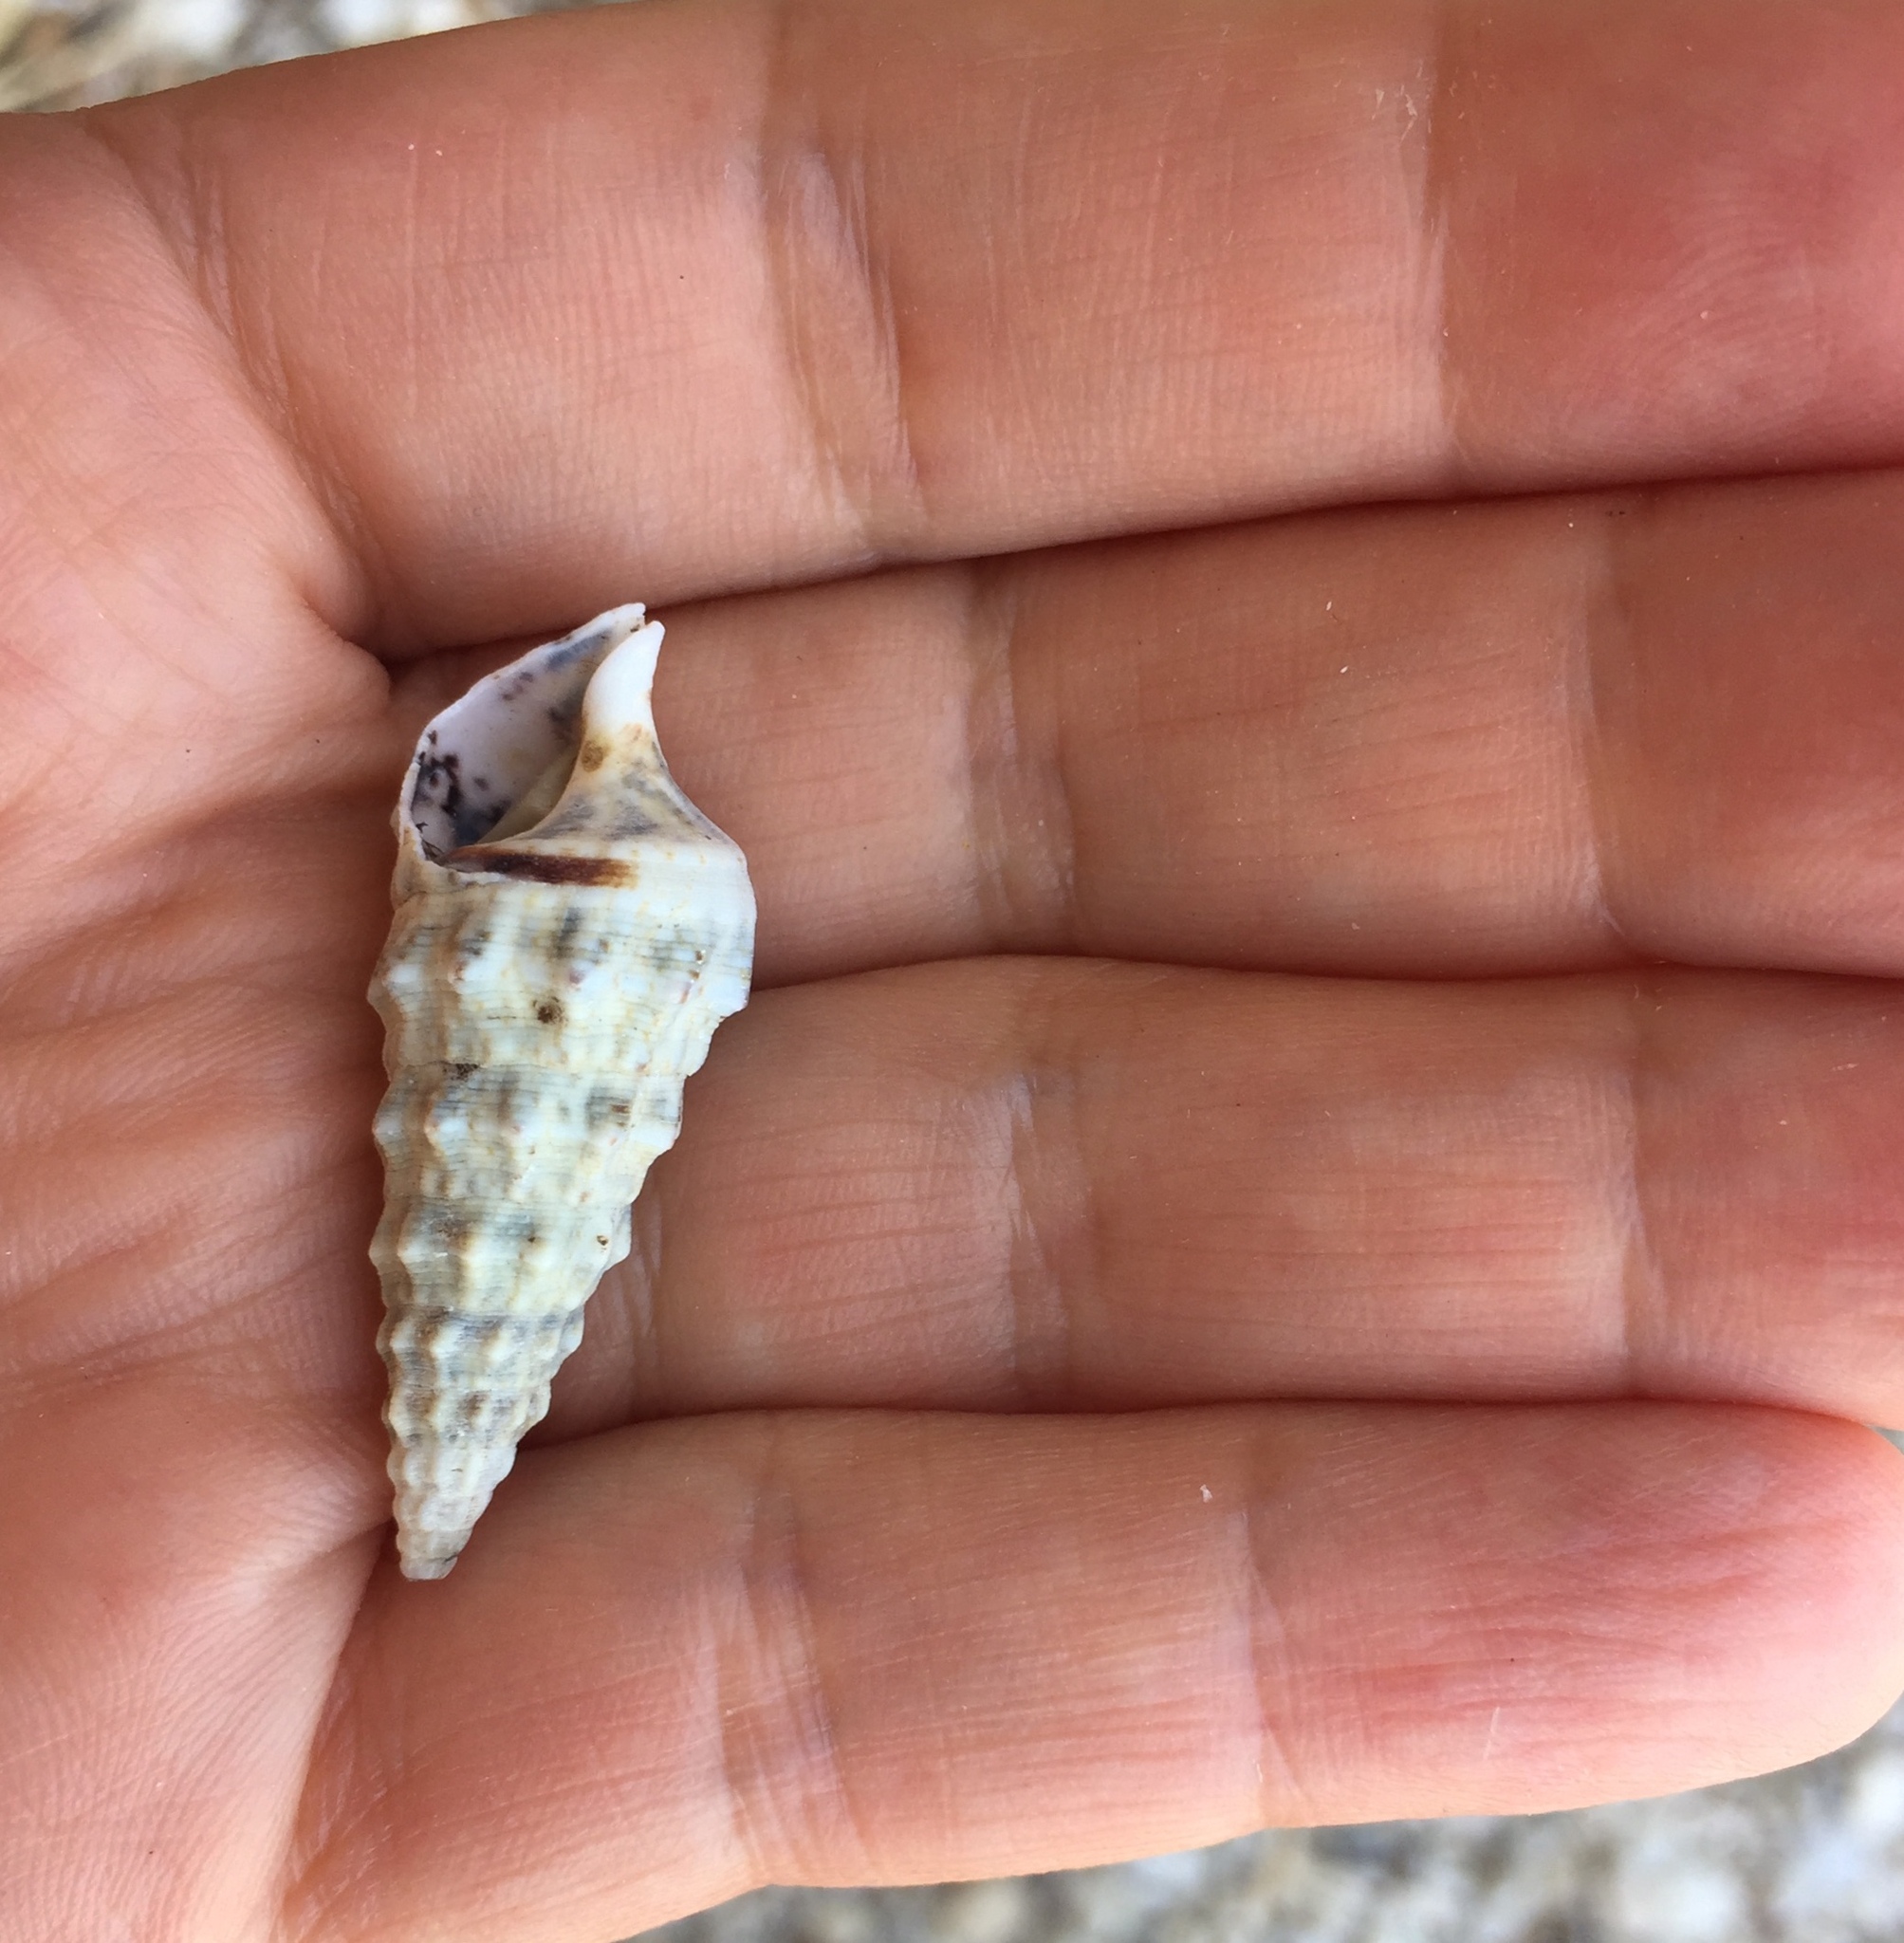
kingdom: Animalia
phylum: Mollusca
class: Gastropoda
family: Cerithiidae
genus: Cerithium
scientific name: Cerithium vulgatum
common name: European cerith
